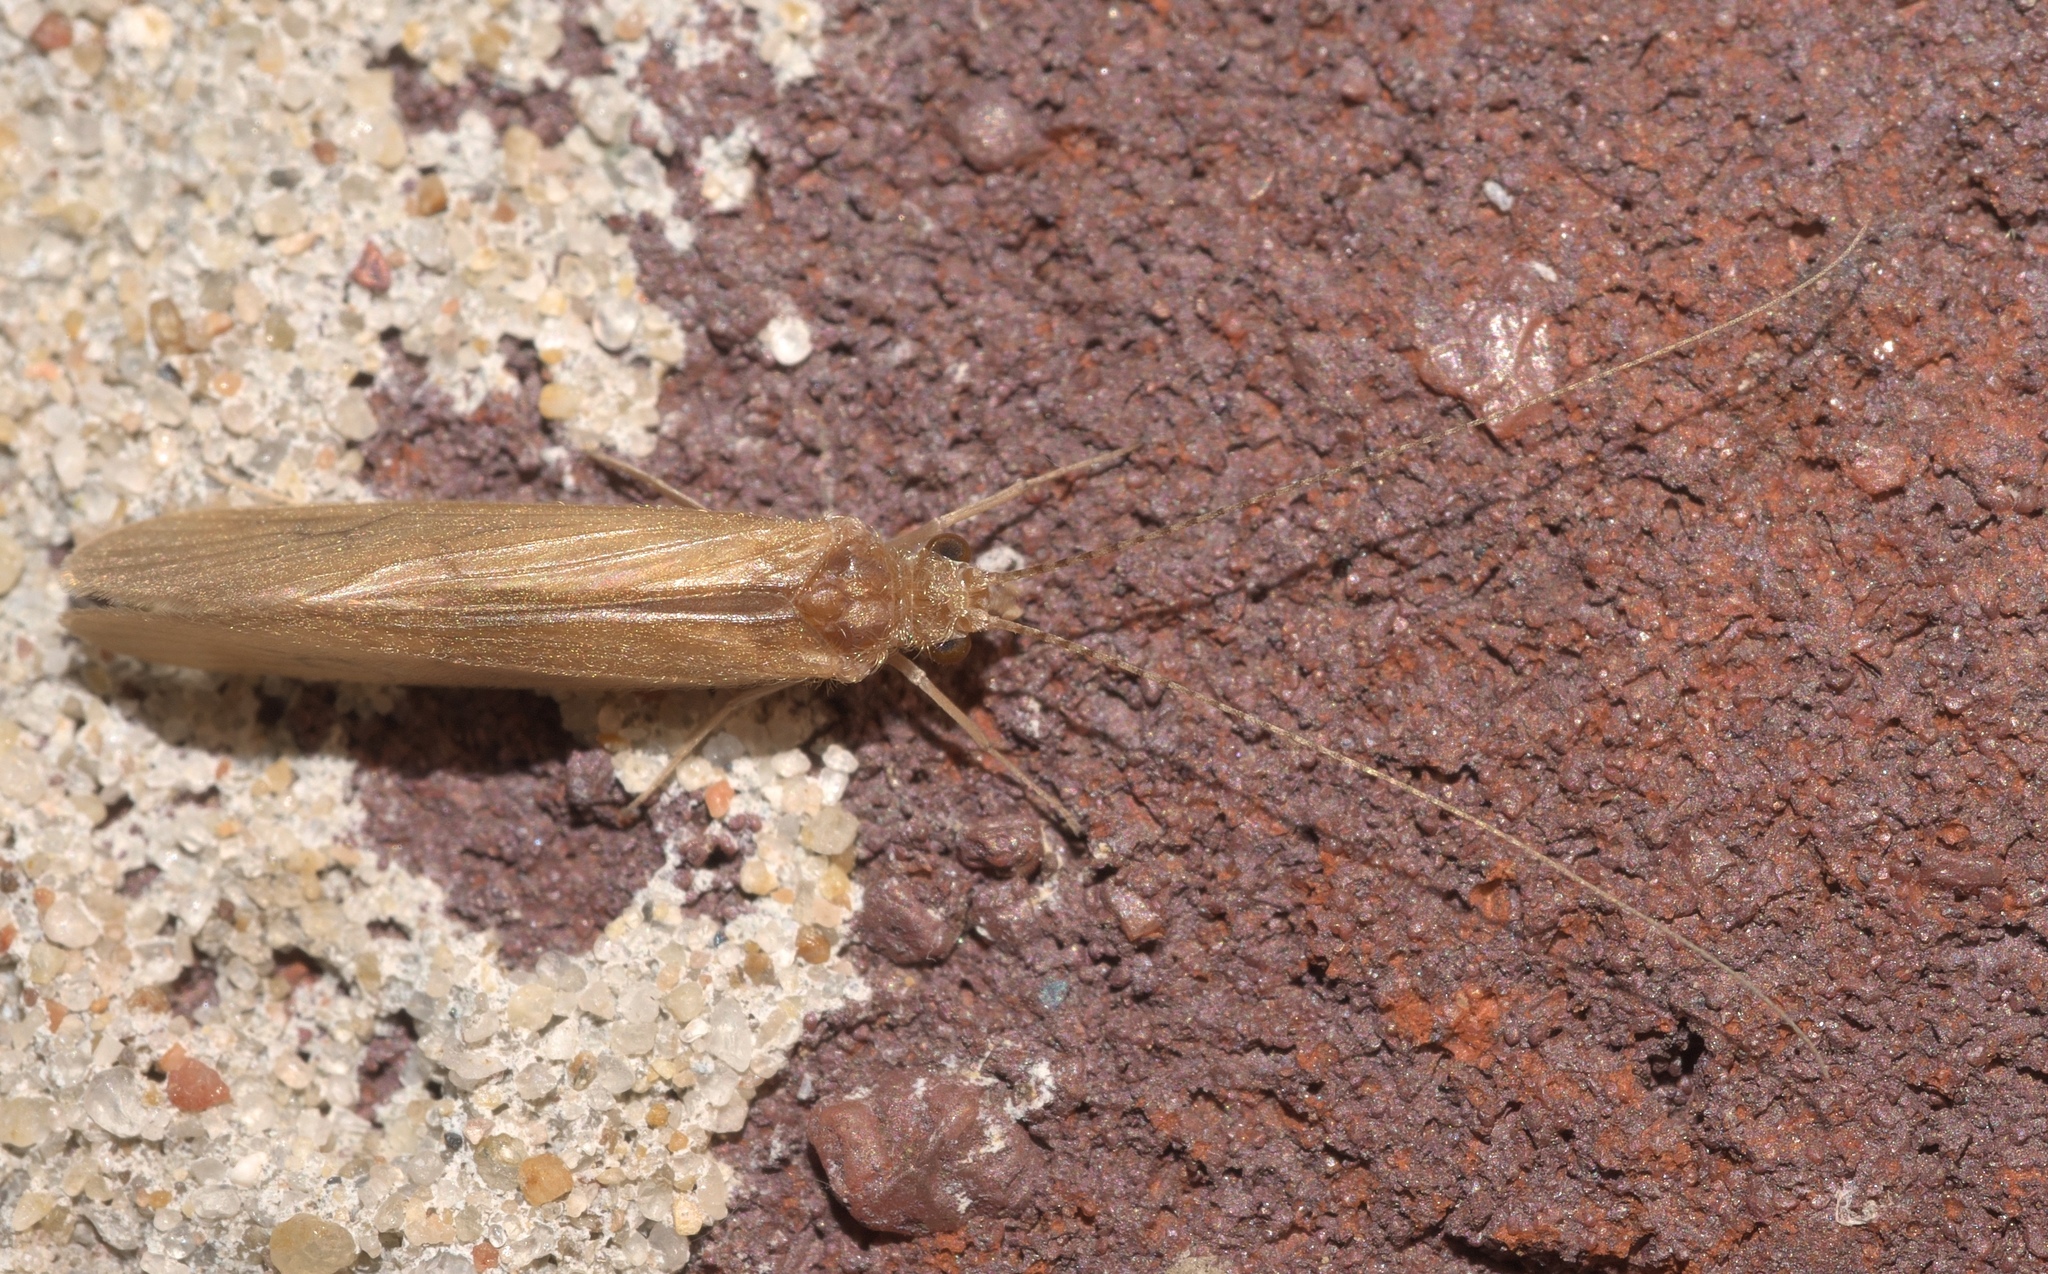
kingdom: Animalia
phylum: Arthropoda
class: Insecta
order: Trichoptera
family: Hydropsychidae
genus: Potamyia
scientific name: Potamyia flava
